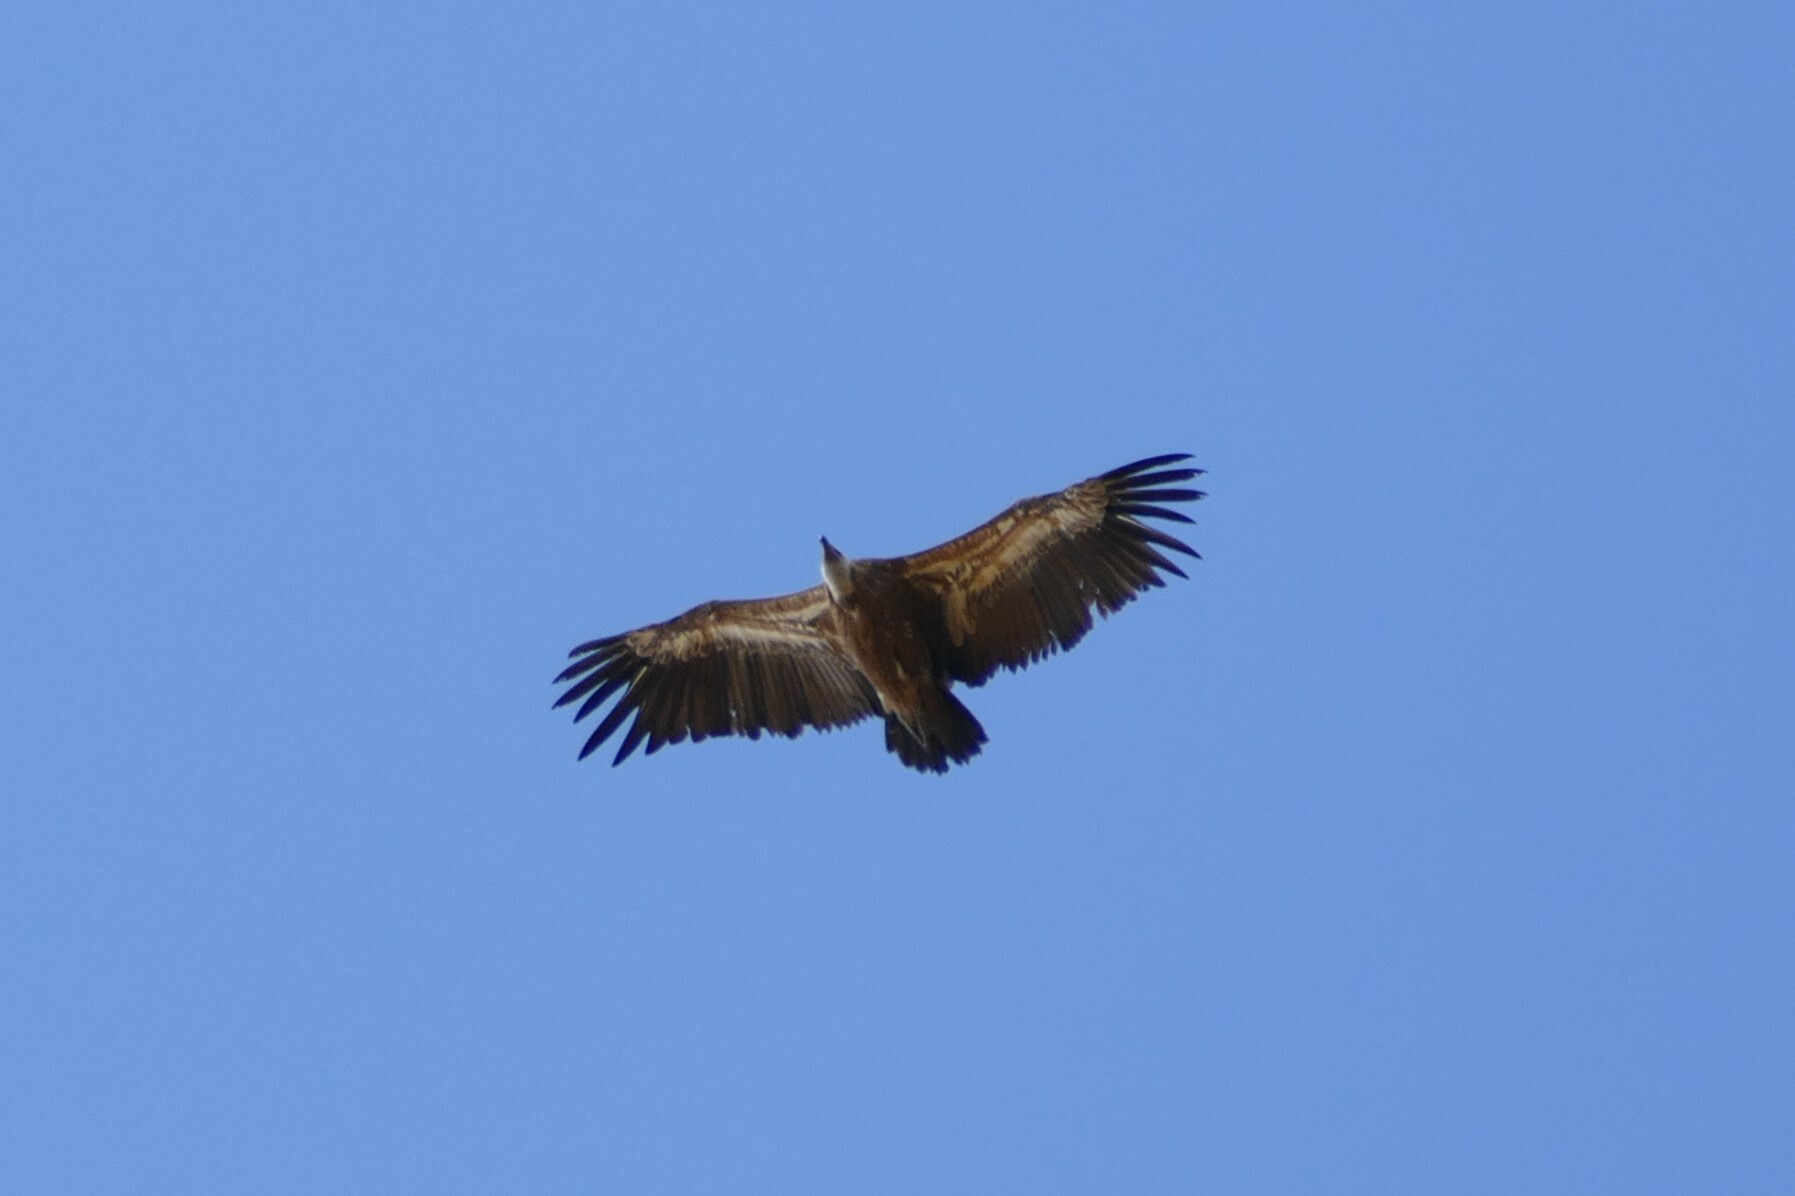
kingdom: Animalia
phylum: Chordata
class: Aves
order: Accipitriformes
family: Accipitridae
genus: Gyps
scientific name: Gyps fulvus
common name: Griffon vulture
